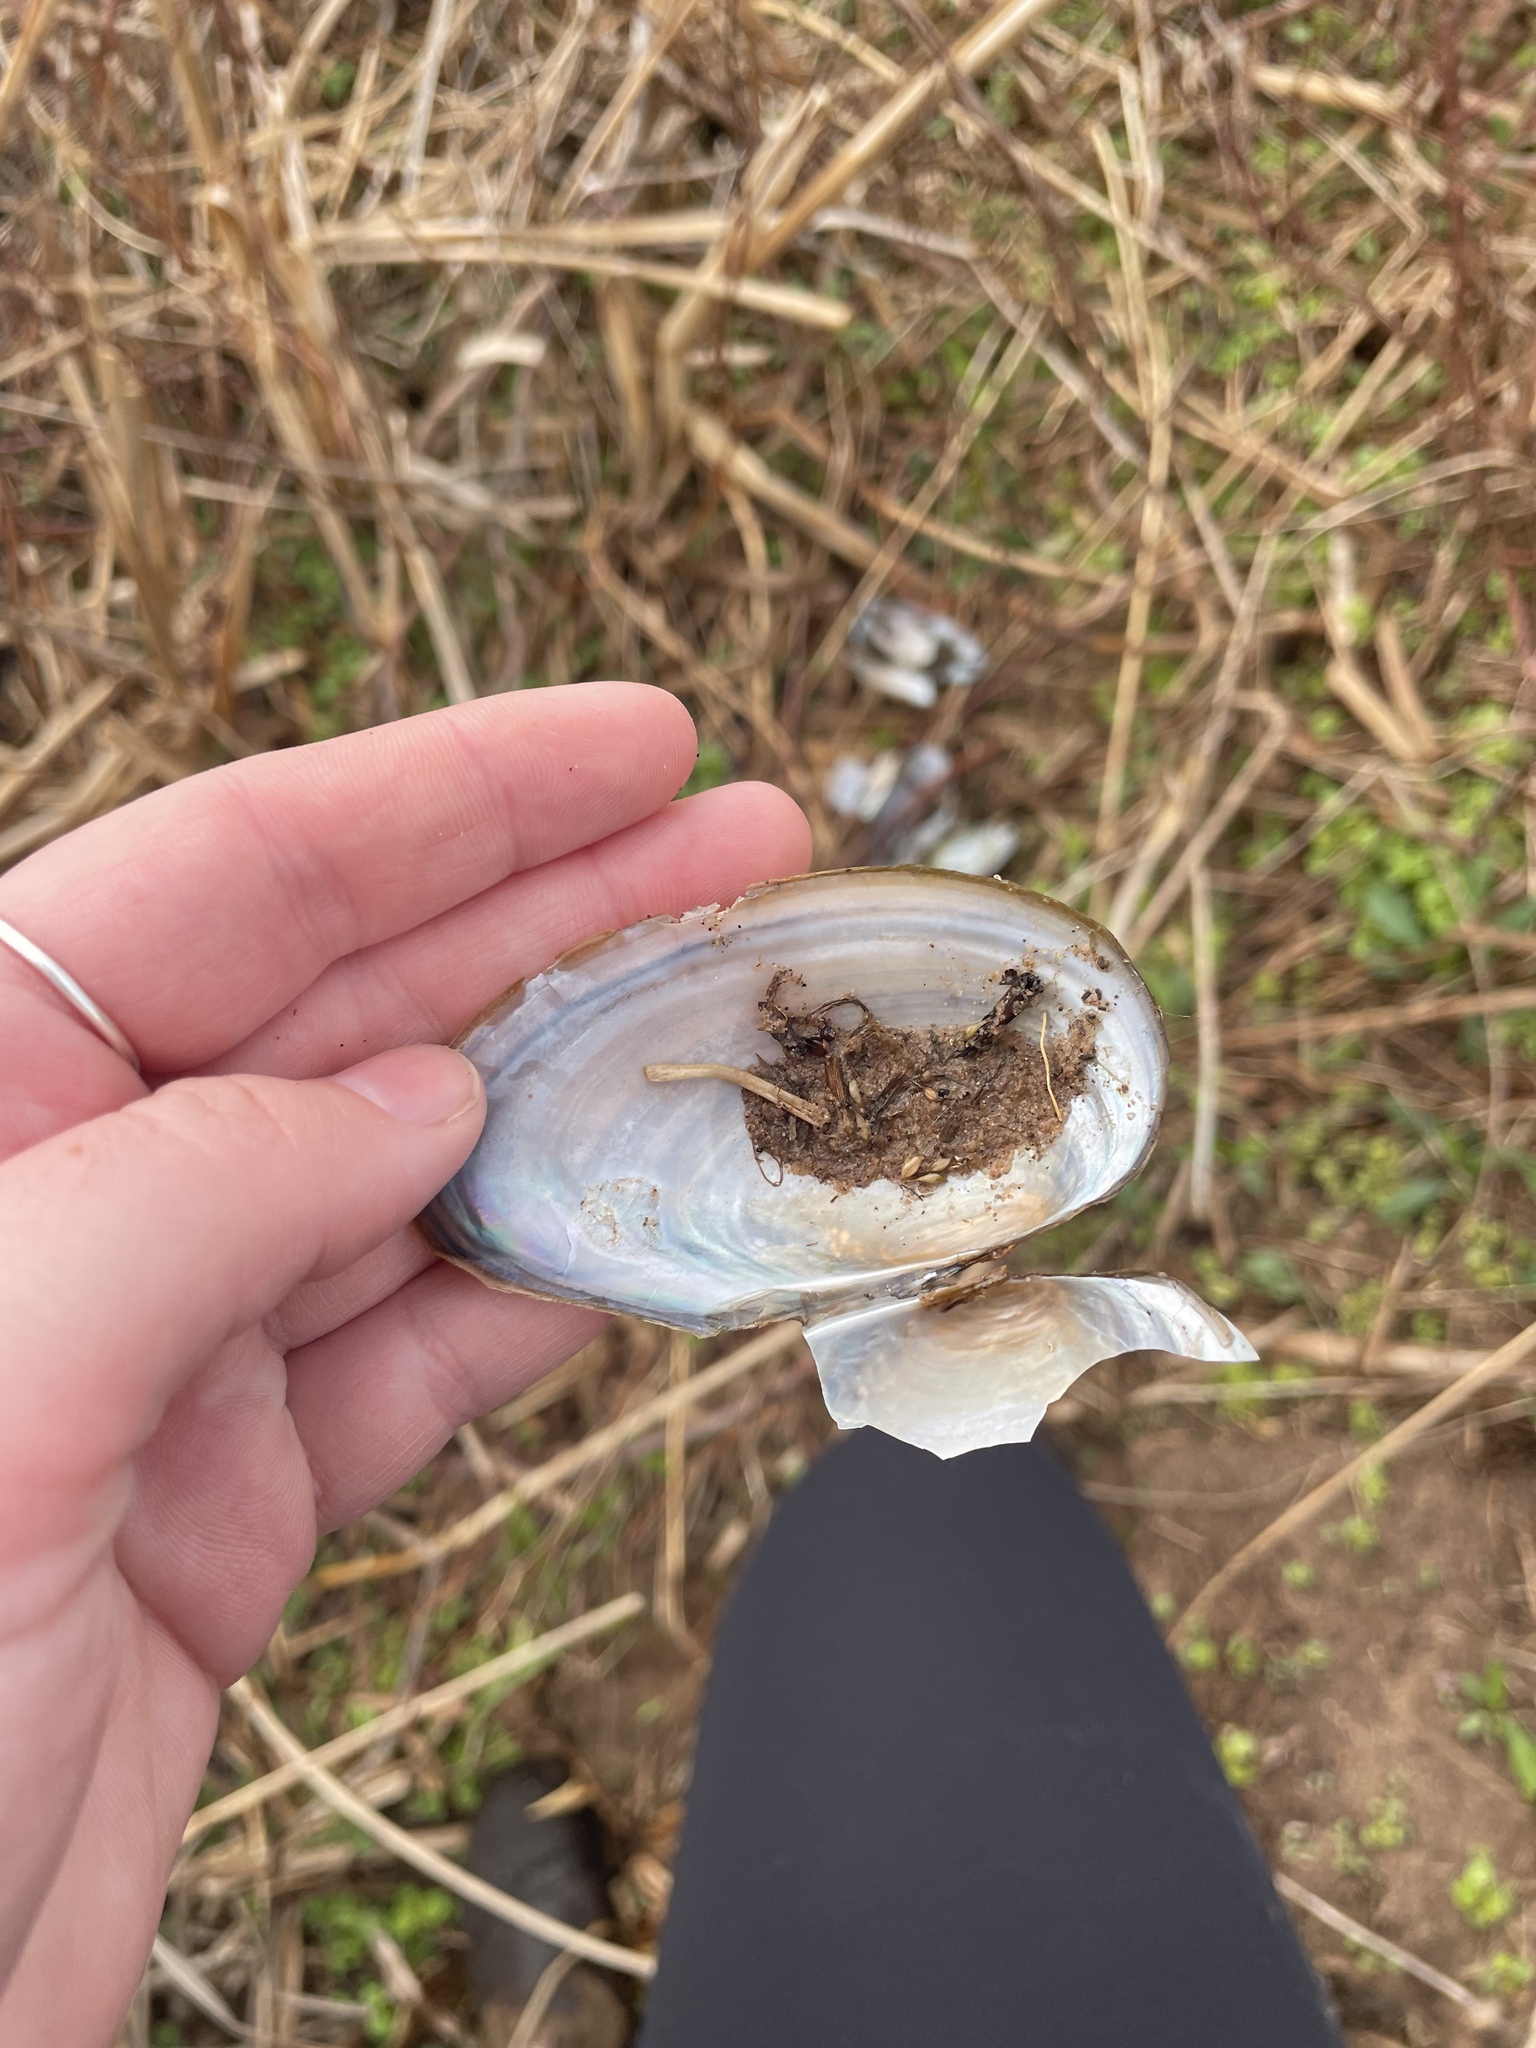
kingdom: Animalia
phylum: Mollusca
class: Bivalvia
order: Unionida
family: Unionidae
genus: Pyganodon
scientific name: Pyganodon cataracta
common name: Eastern floater
